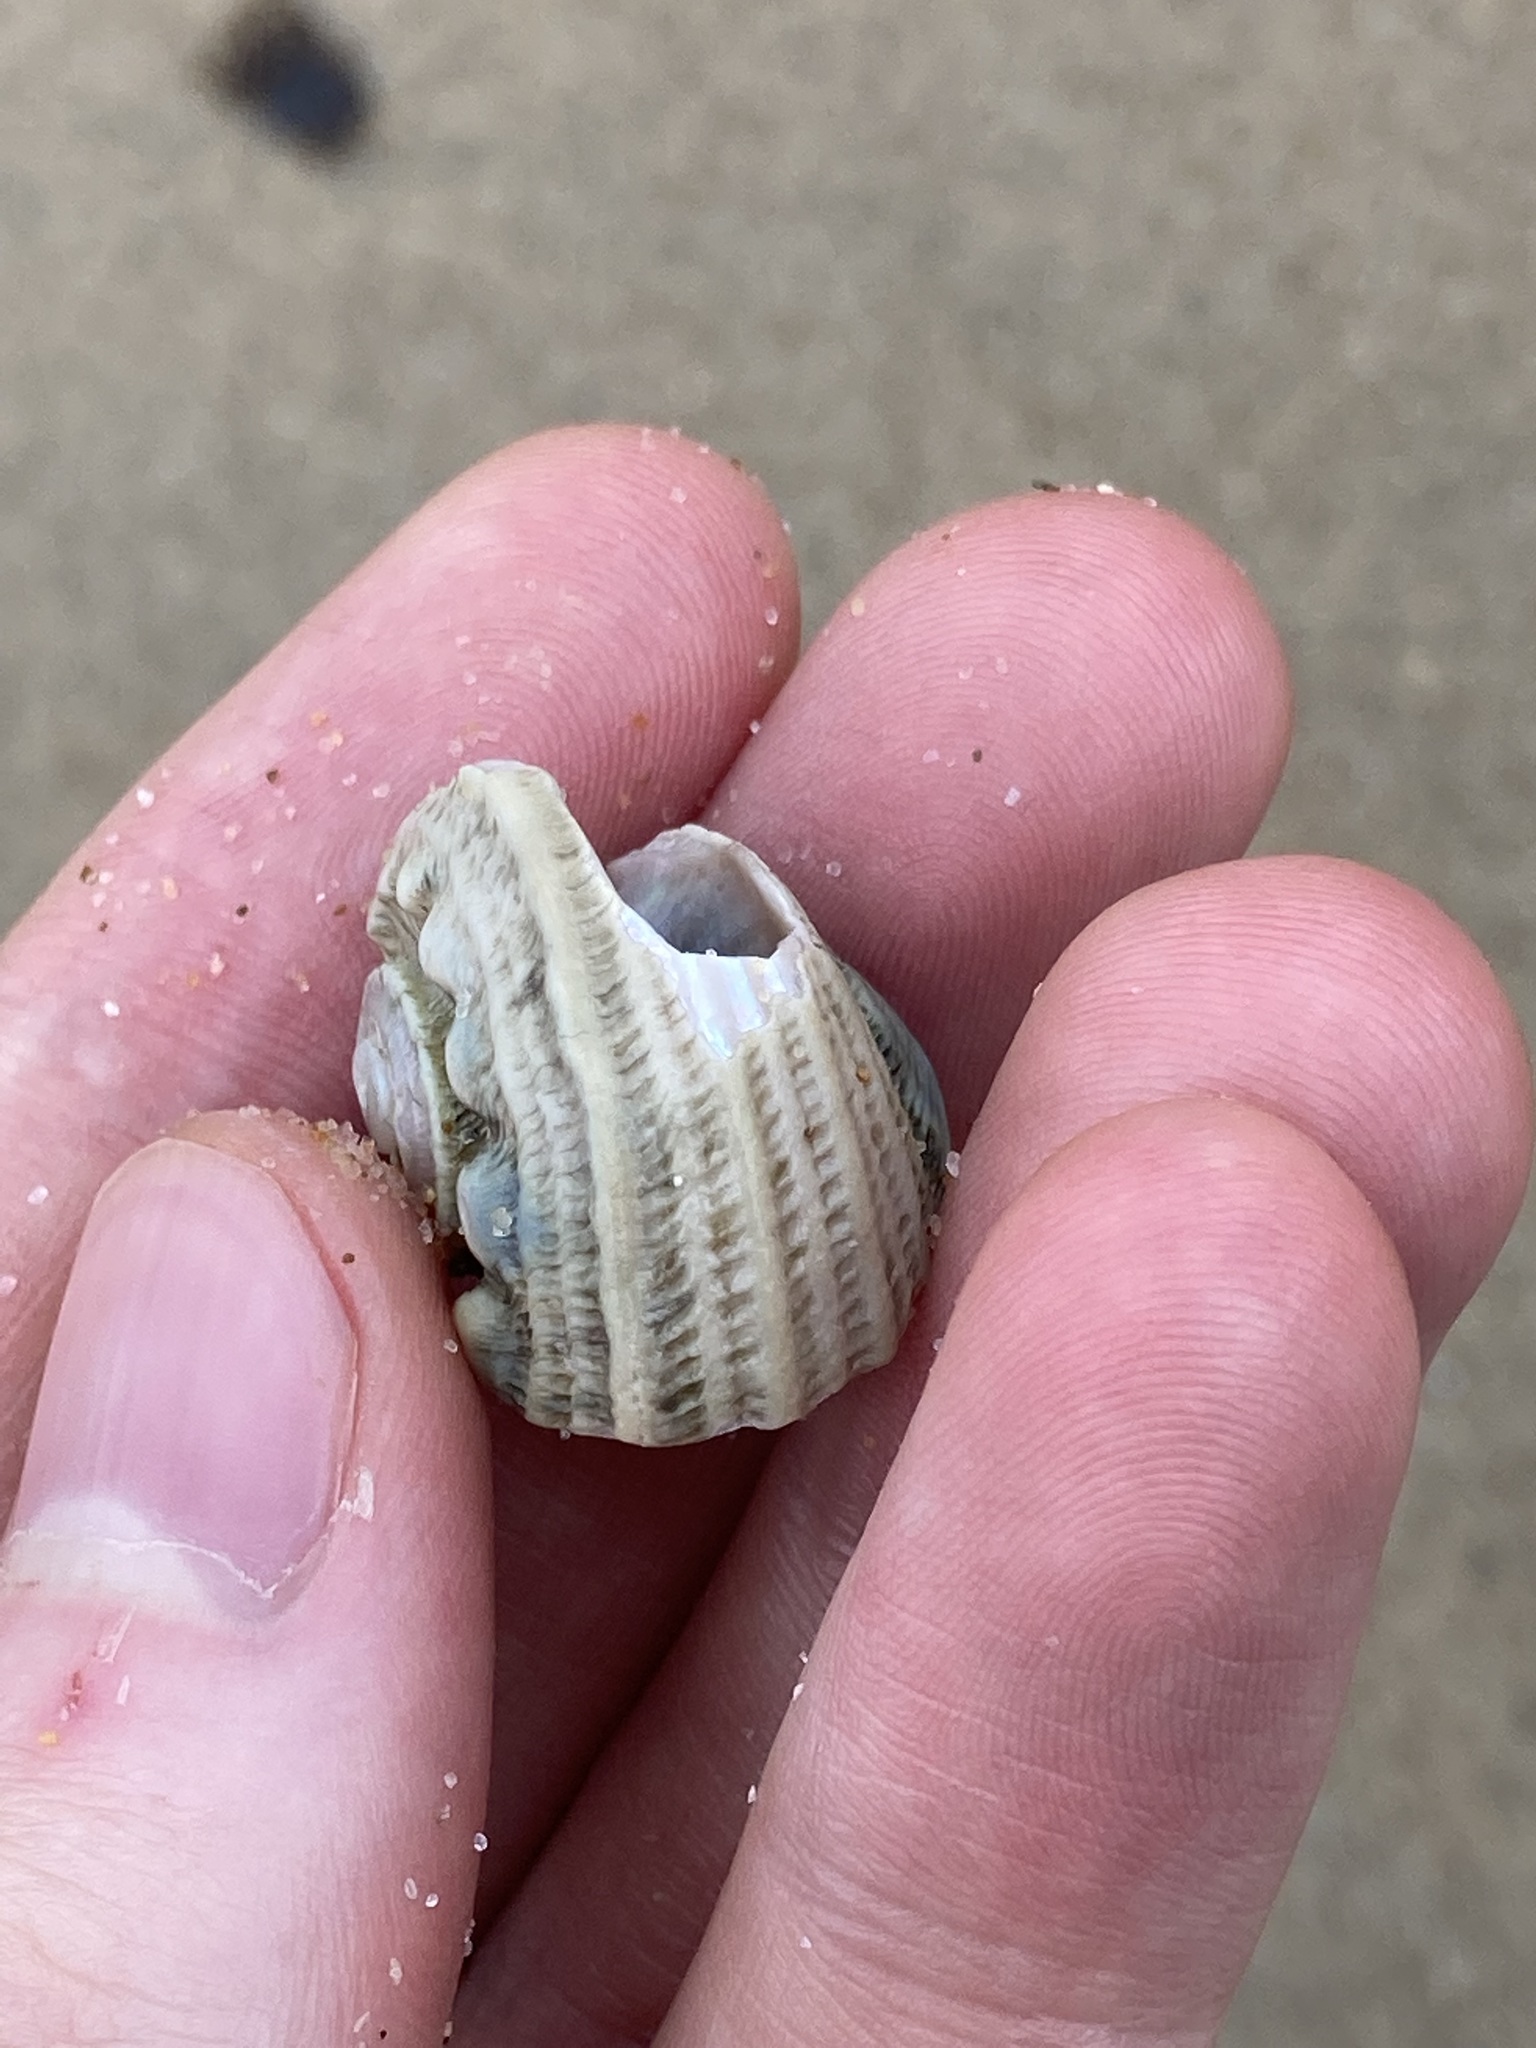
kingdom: Animalia
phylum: Mollusca
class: Gastropoda
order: Trochida
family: Turbinidae
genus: Lunella
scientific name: Lunella torquata
